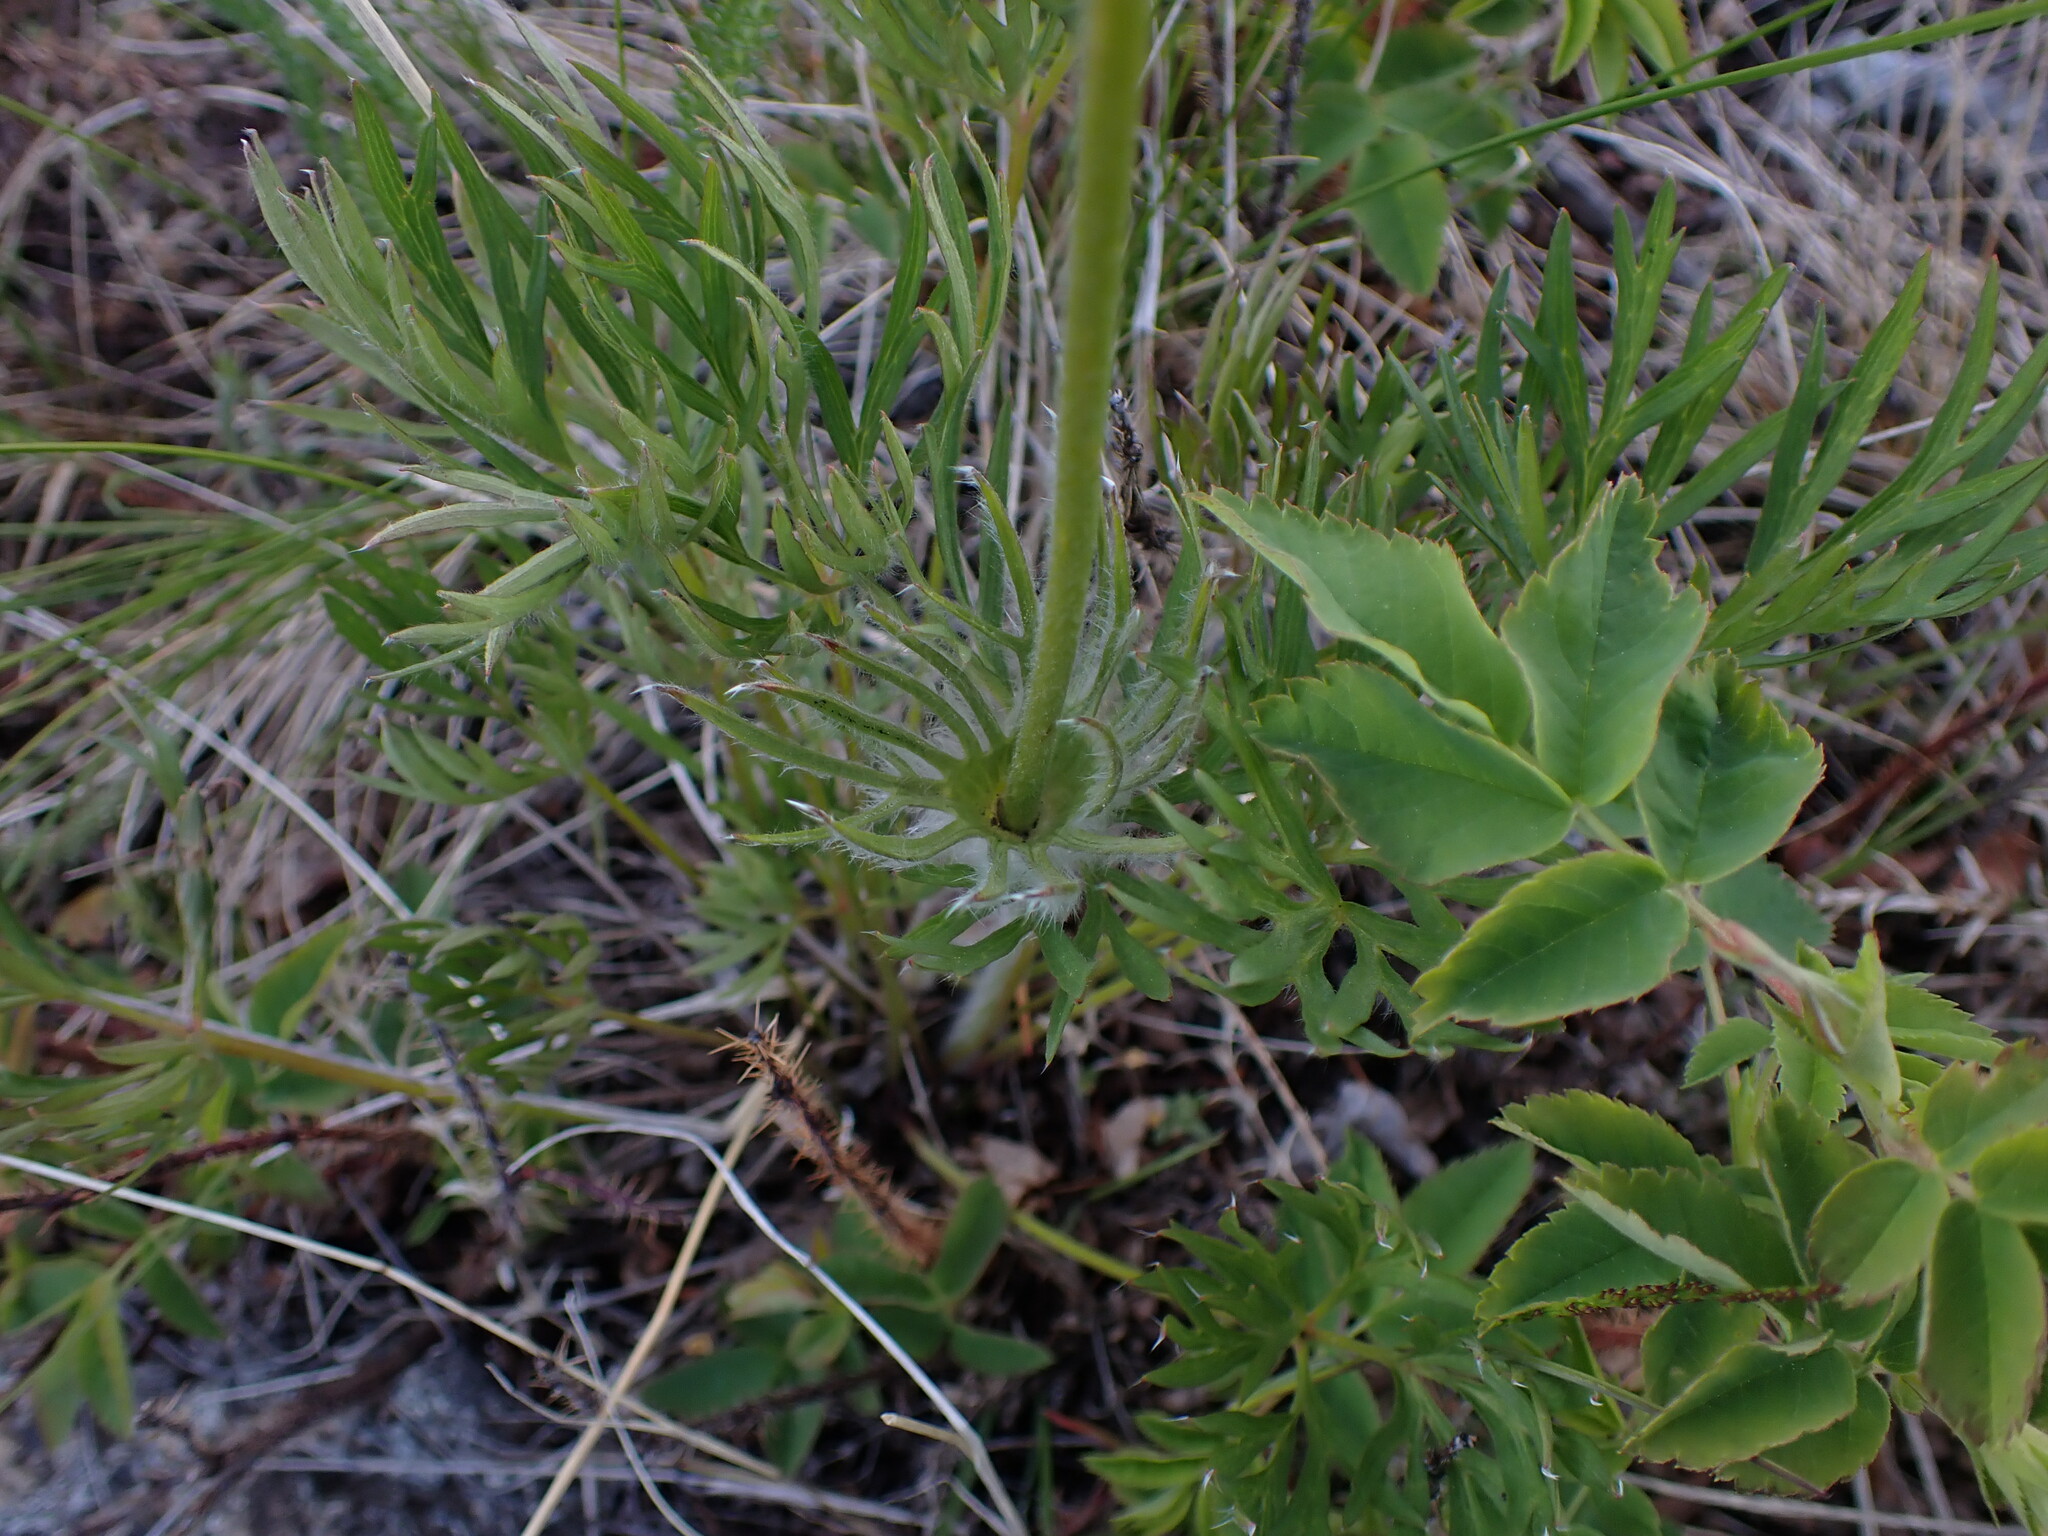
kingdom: Plantae
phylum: Tracheophyta
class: Magnoliopsida
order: Ranunculales
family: Ranunculaceae
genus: Pulsatilla
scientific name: Pulsatilla nuttalliana
